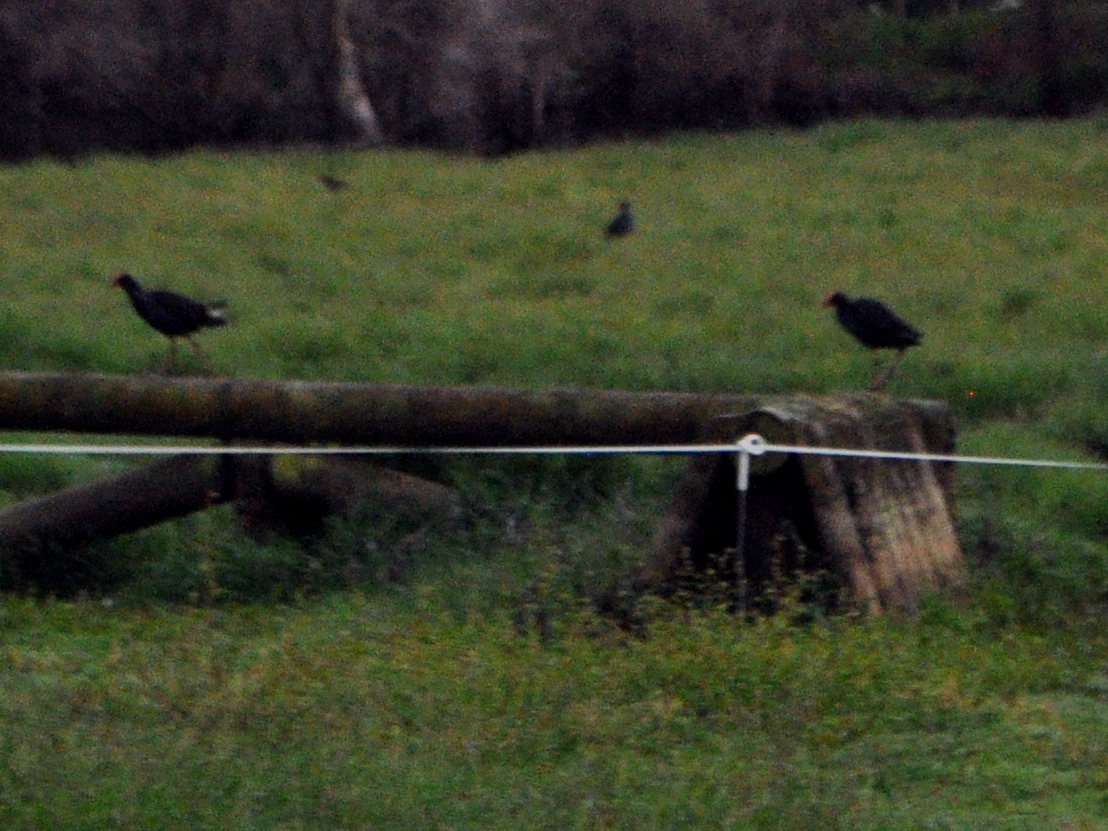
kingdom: Animalia
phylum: Chordata
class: Aves
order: Gruiformes
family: Rallidae
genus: Porphyrio
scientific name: Porphyrio melanotus
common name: Australasian swamphen
